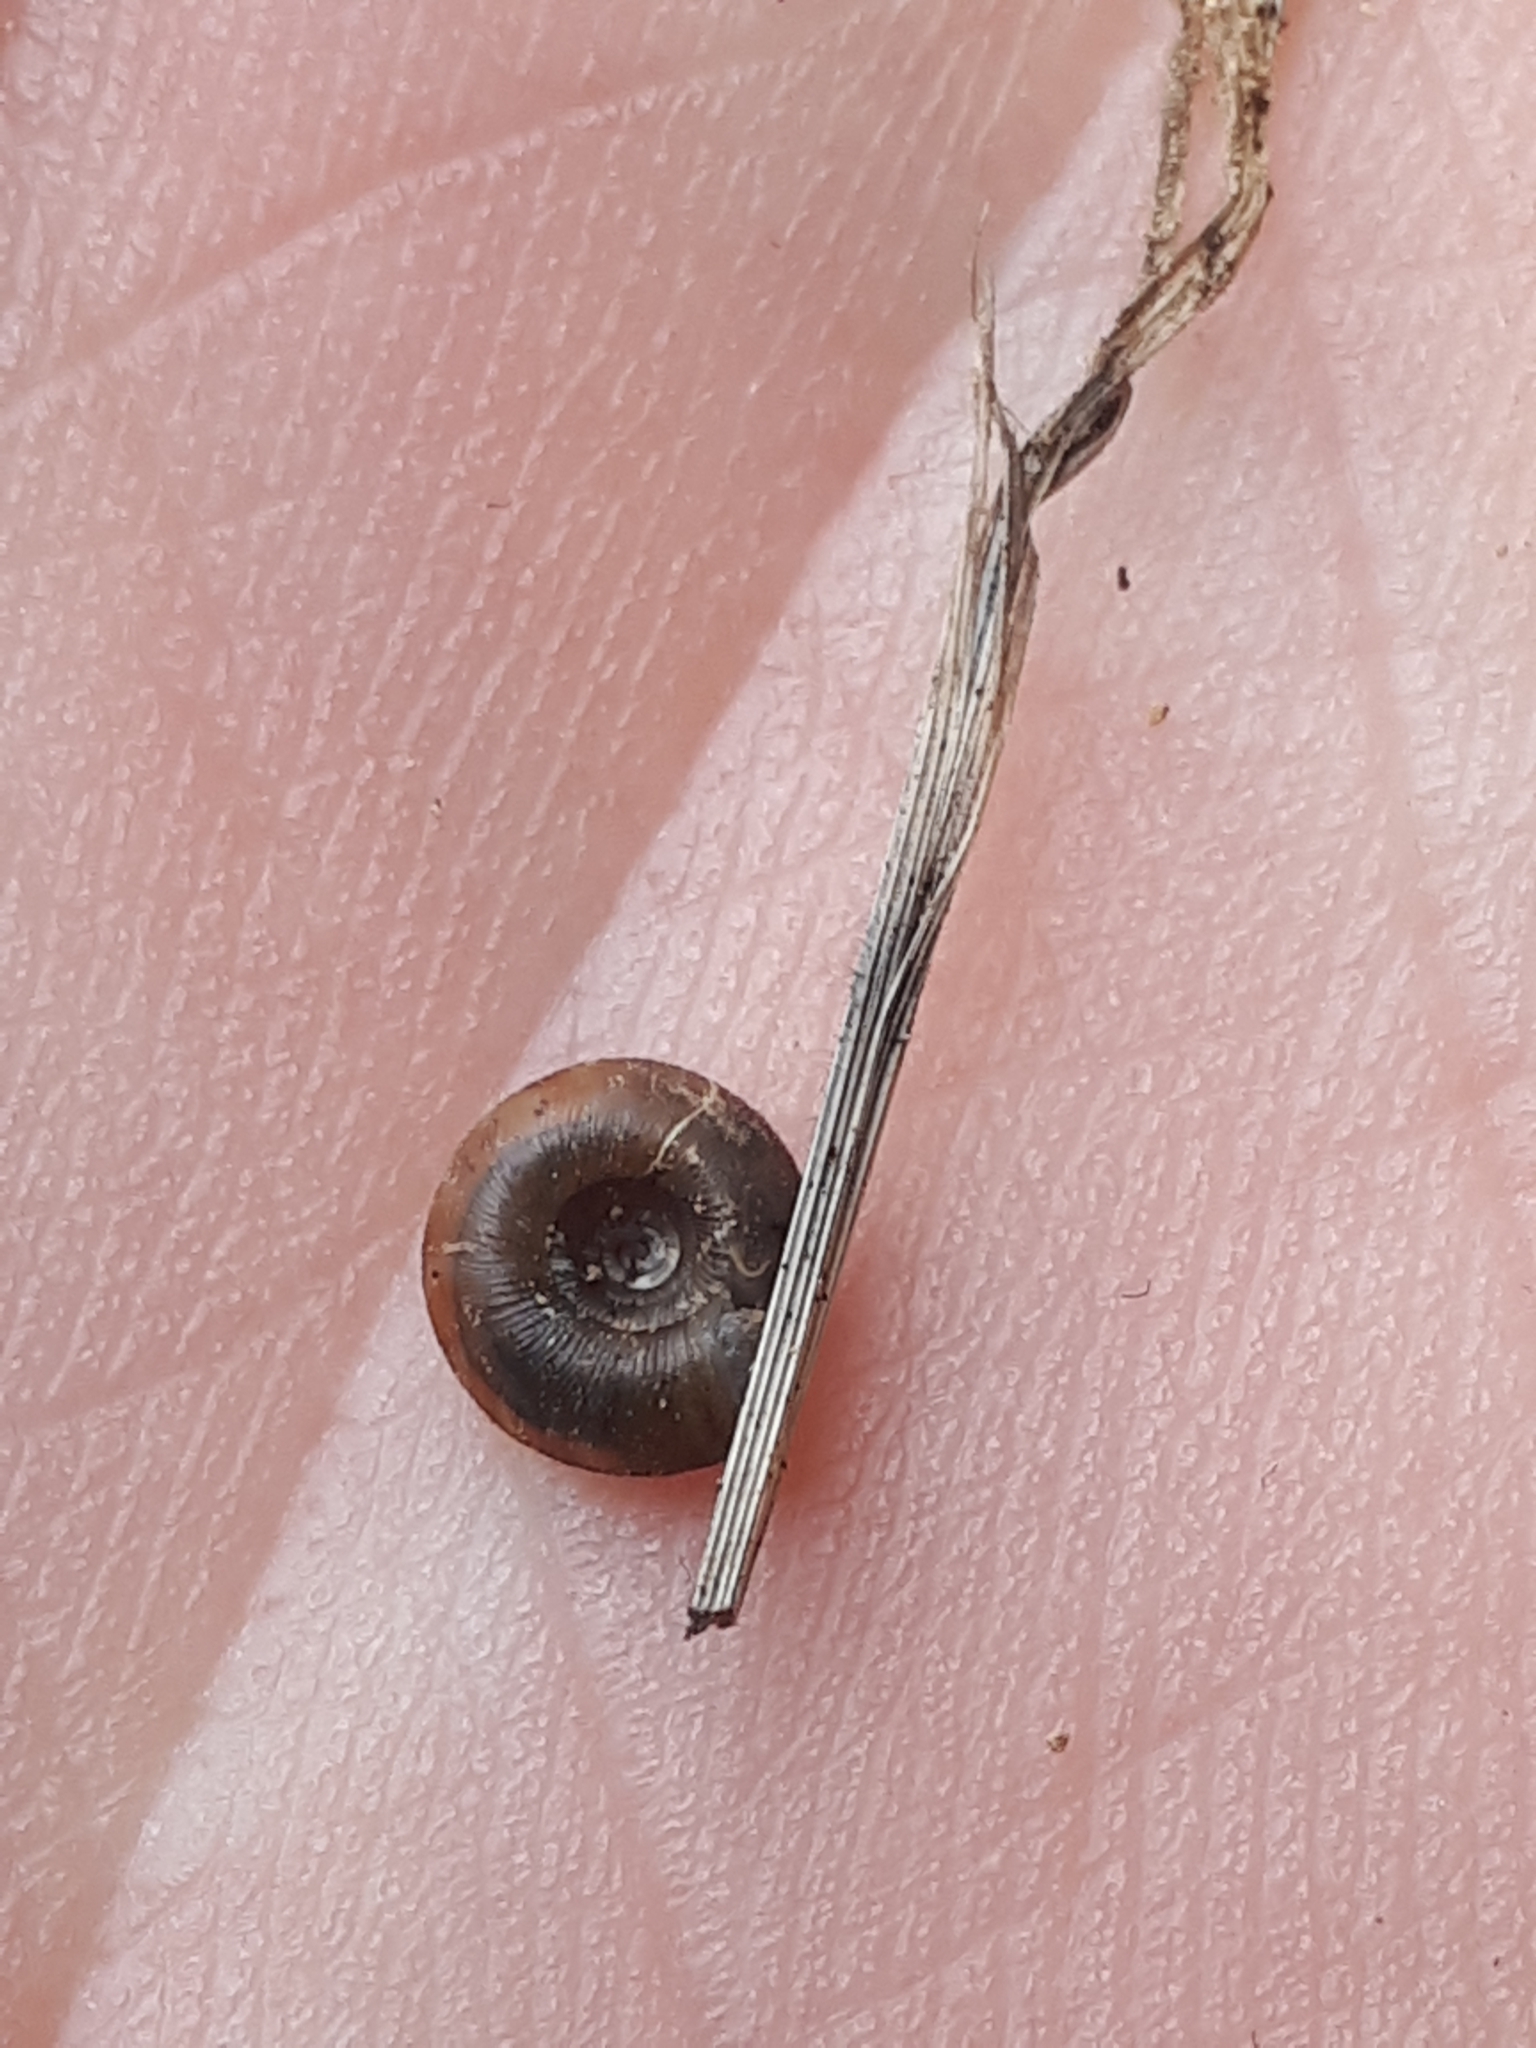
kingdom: Animalia
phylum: Mollusca
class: Gastropoda
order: Stylommatophora
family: Discidae
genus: Discus
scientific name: Discus rotundatus
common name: Rounded snail
